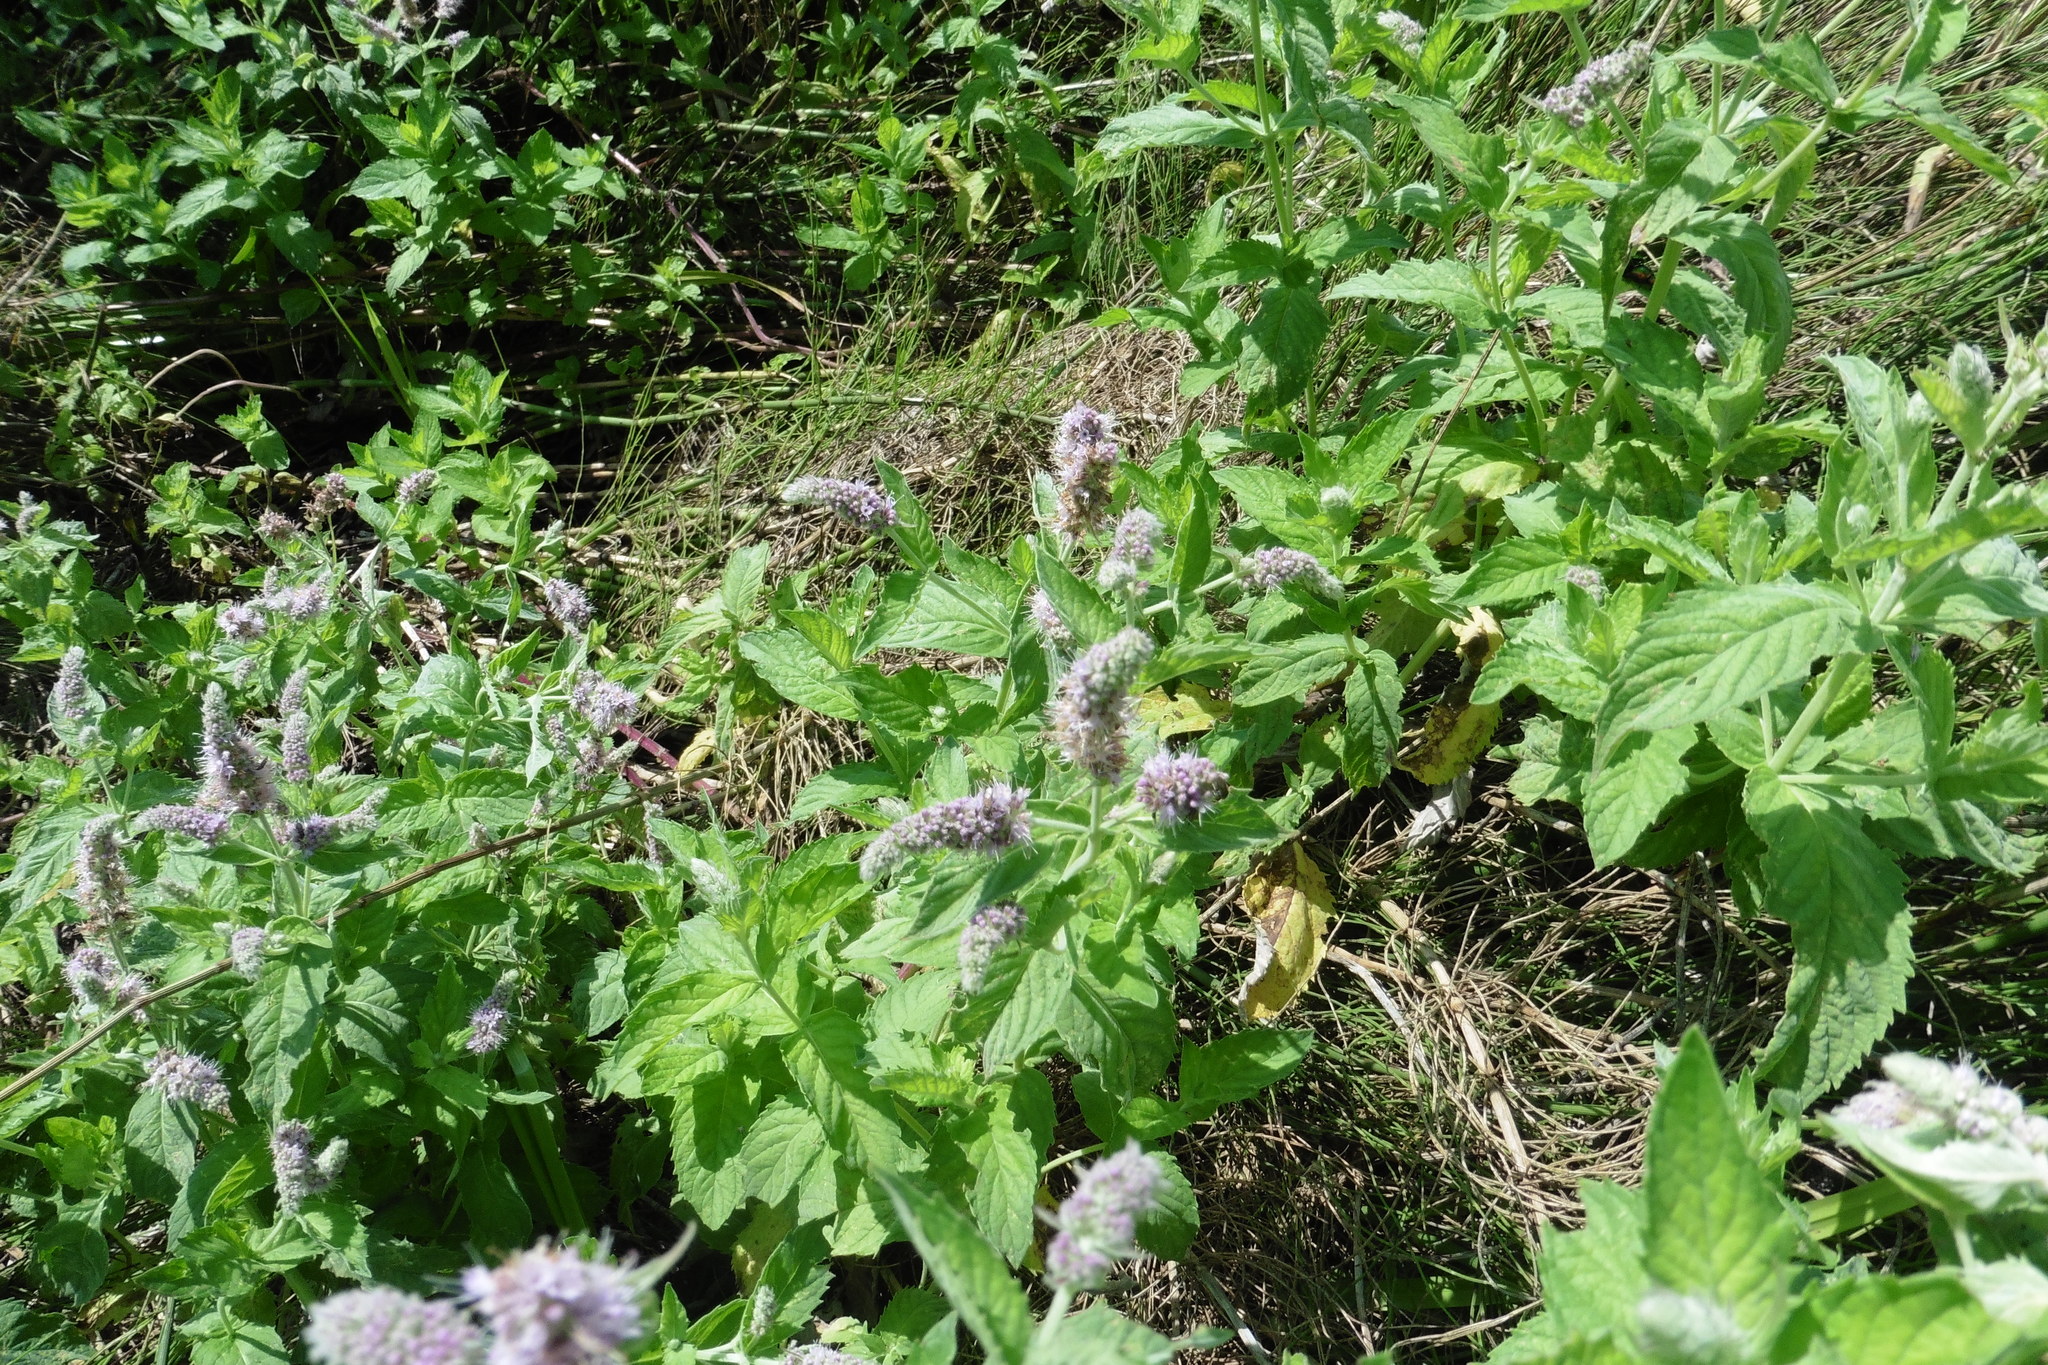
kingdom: Plantae
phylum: Tracheophyta
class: Magnoliopsida
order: Lamiales
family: Lamiaceae
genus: Mentha
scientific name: Mentha longifolia
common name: Horse mint
